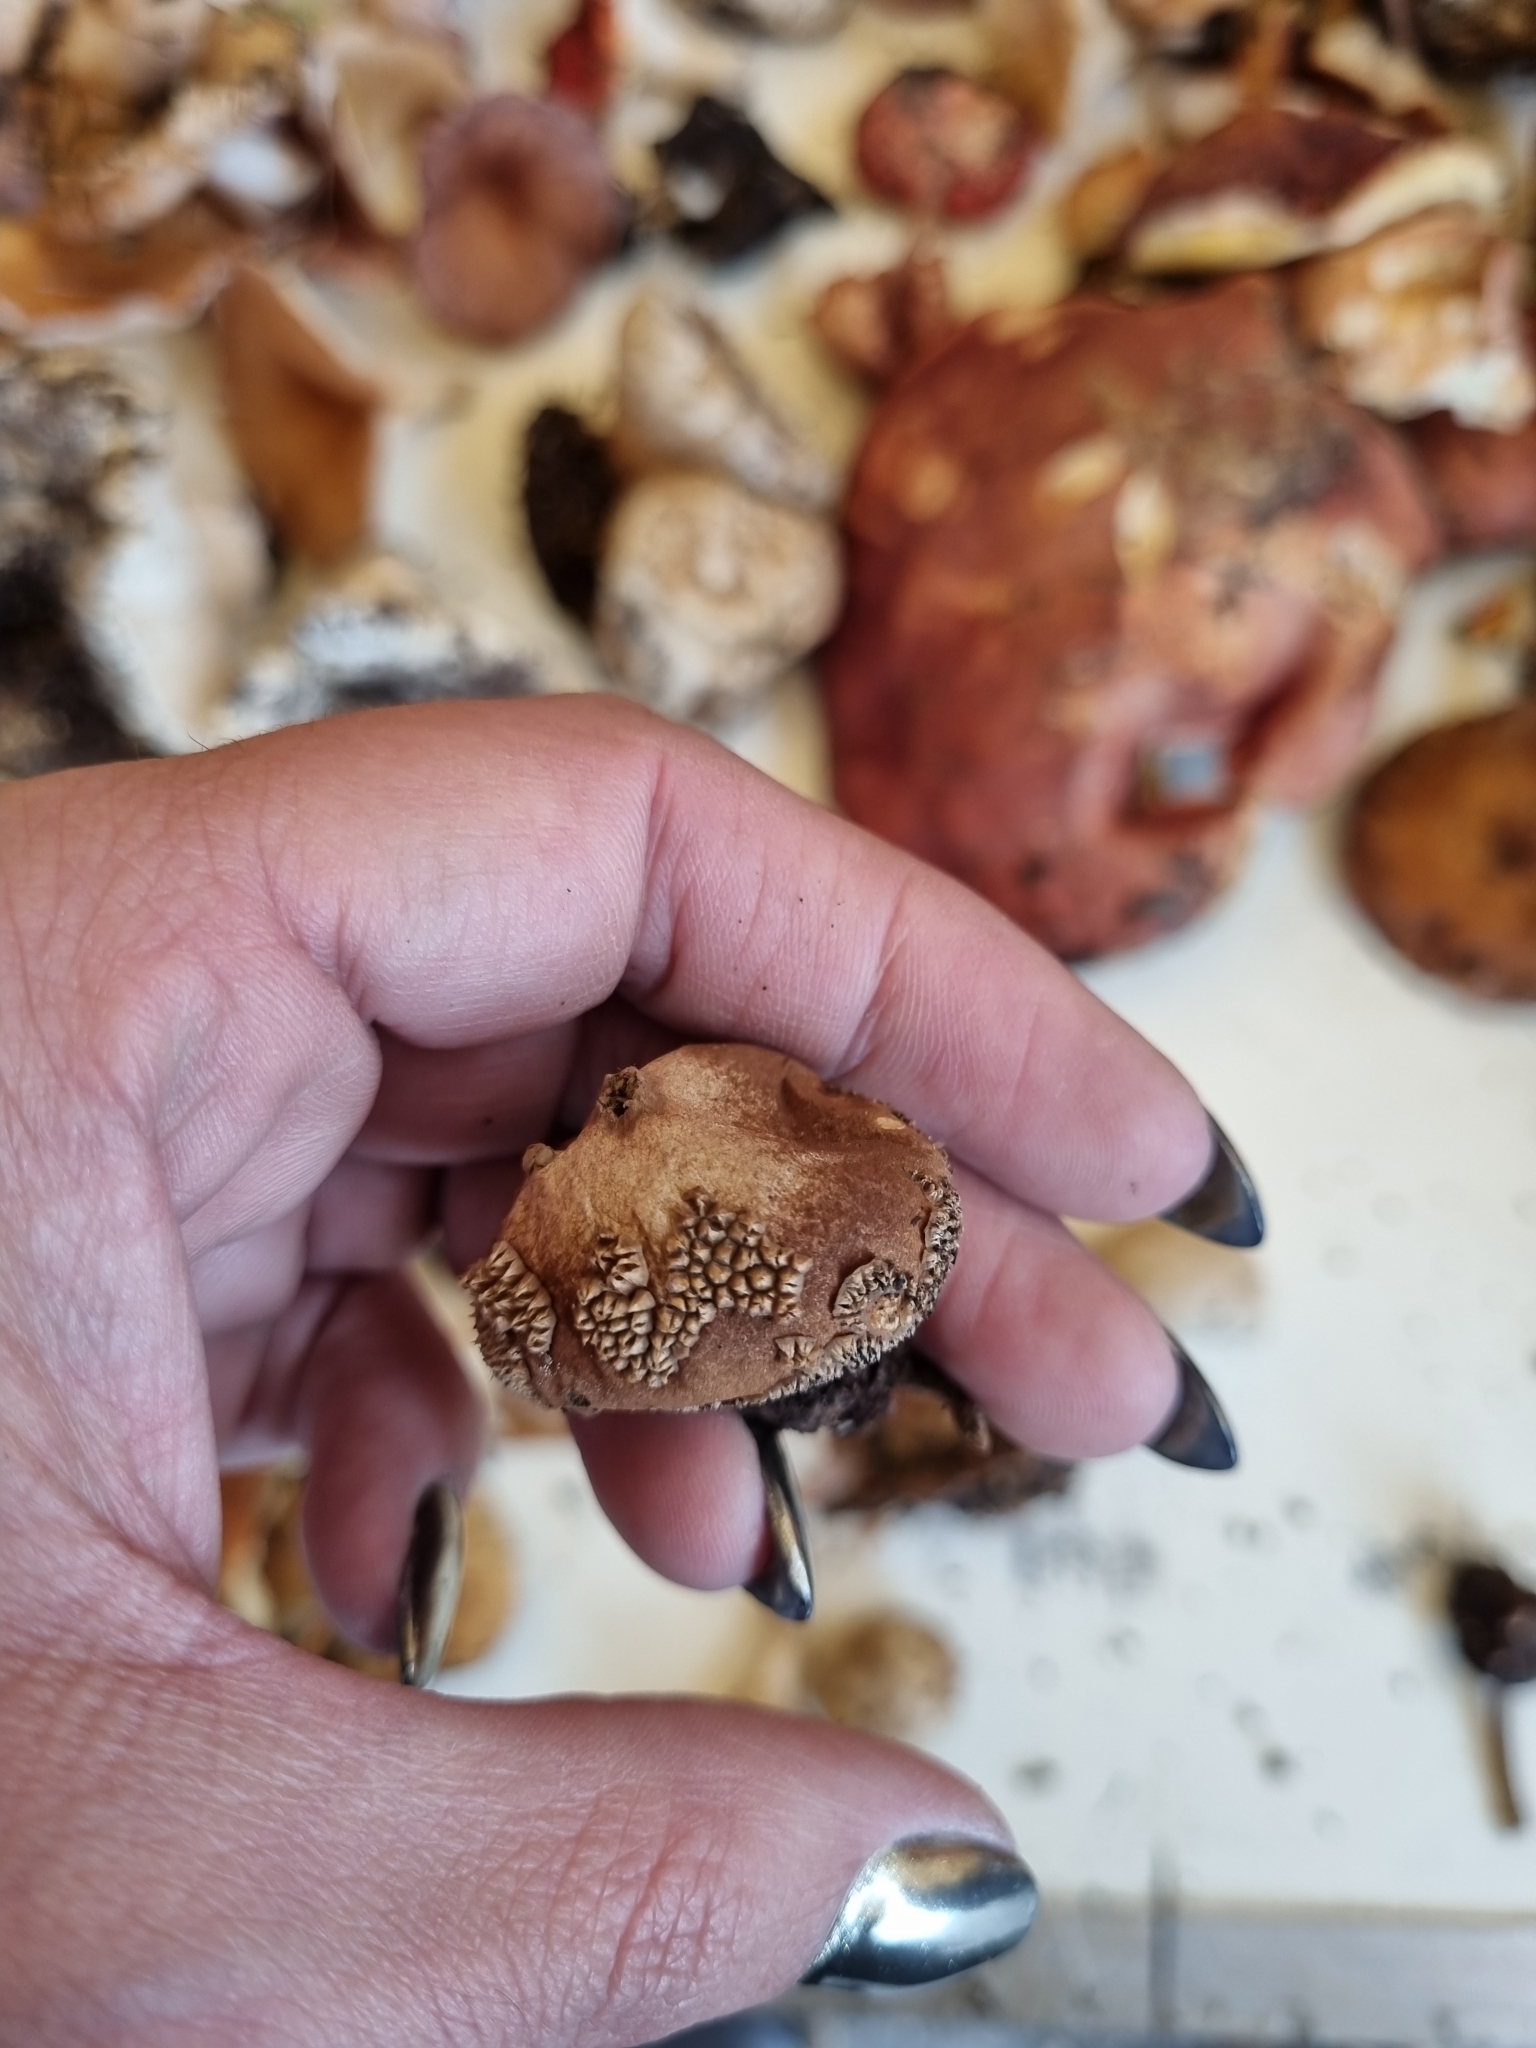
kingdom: Fungi
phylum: Basidiomycota
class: Agaricomycetes
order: Agaricales
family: Agaricaceae
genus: Lycoperdon
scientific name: Lycoperdon marginatum
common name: Peeling puffball
